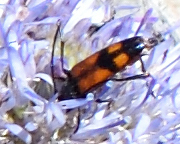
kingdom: Animalia
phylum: Arthropoda
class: Insecta
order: Coleoptera
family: Cerambycidae
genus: Stenurella
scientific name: Stenurella bifasciata
